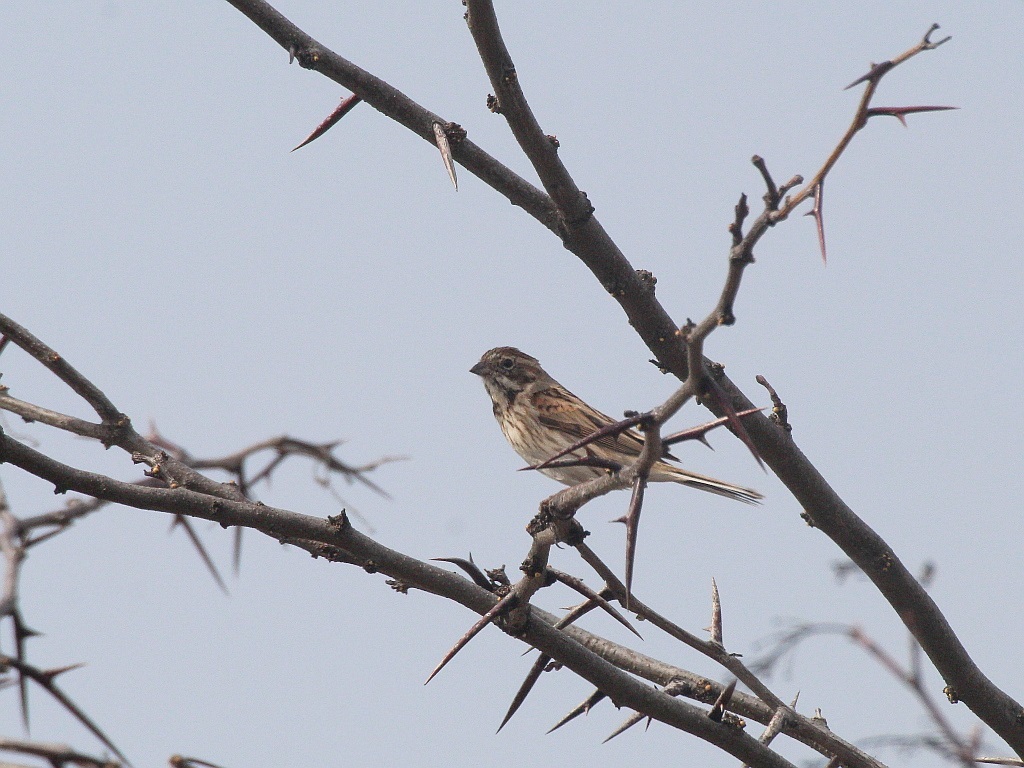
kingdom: Animalia
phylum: Chordata
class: Aves
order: Passeriformes
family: Emberizidae
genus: Emberiza
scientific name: Emberiza schoeniclus
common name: Reed bunting
